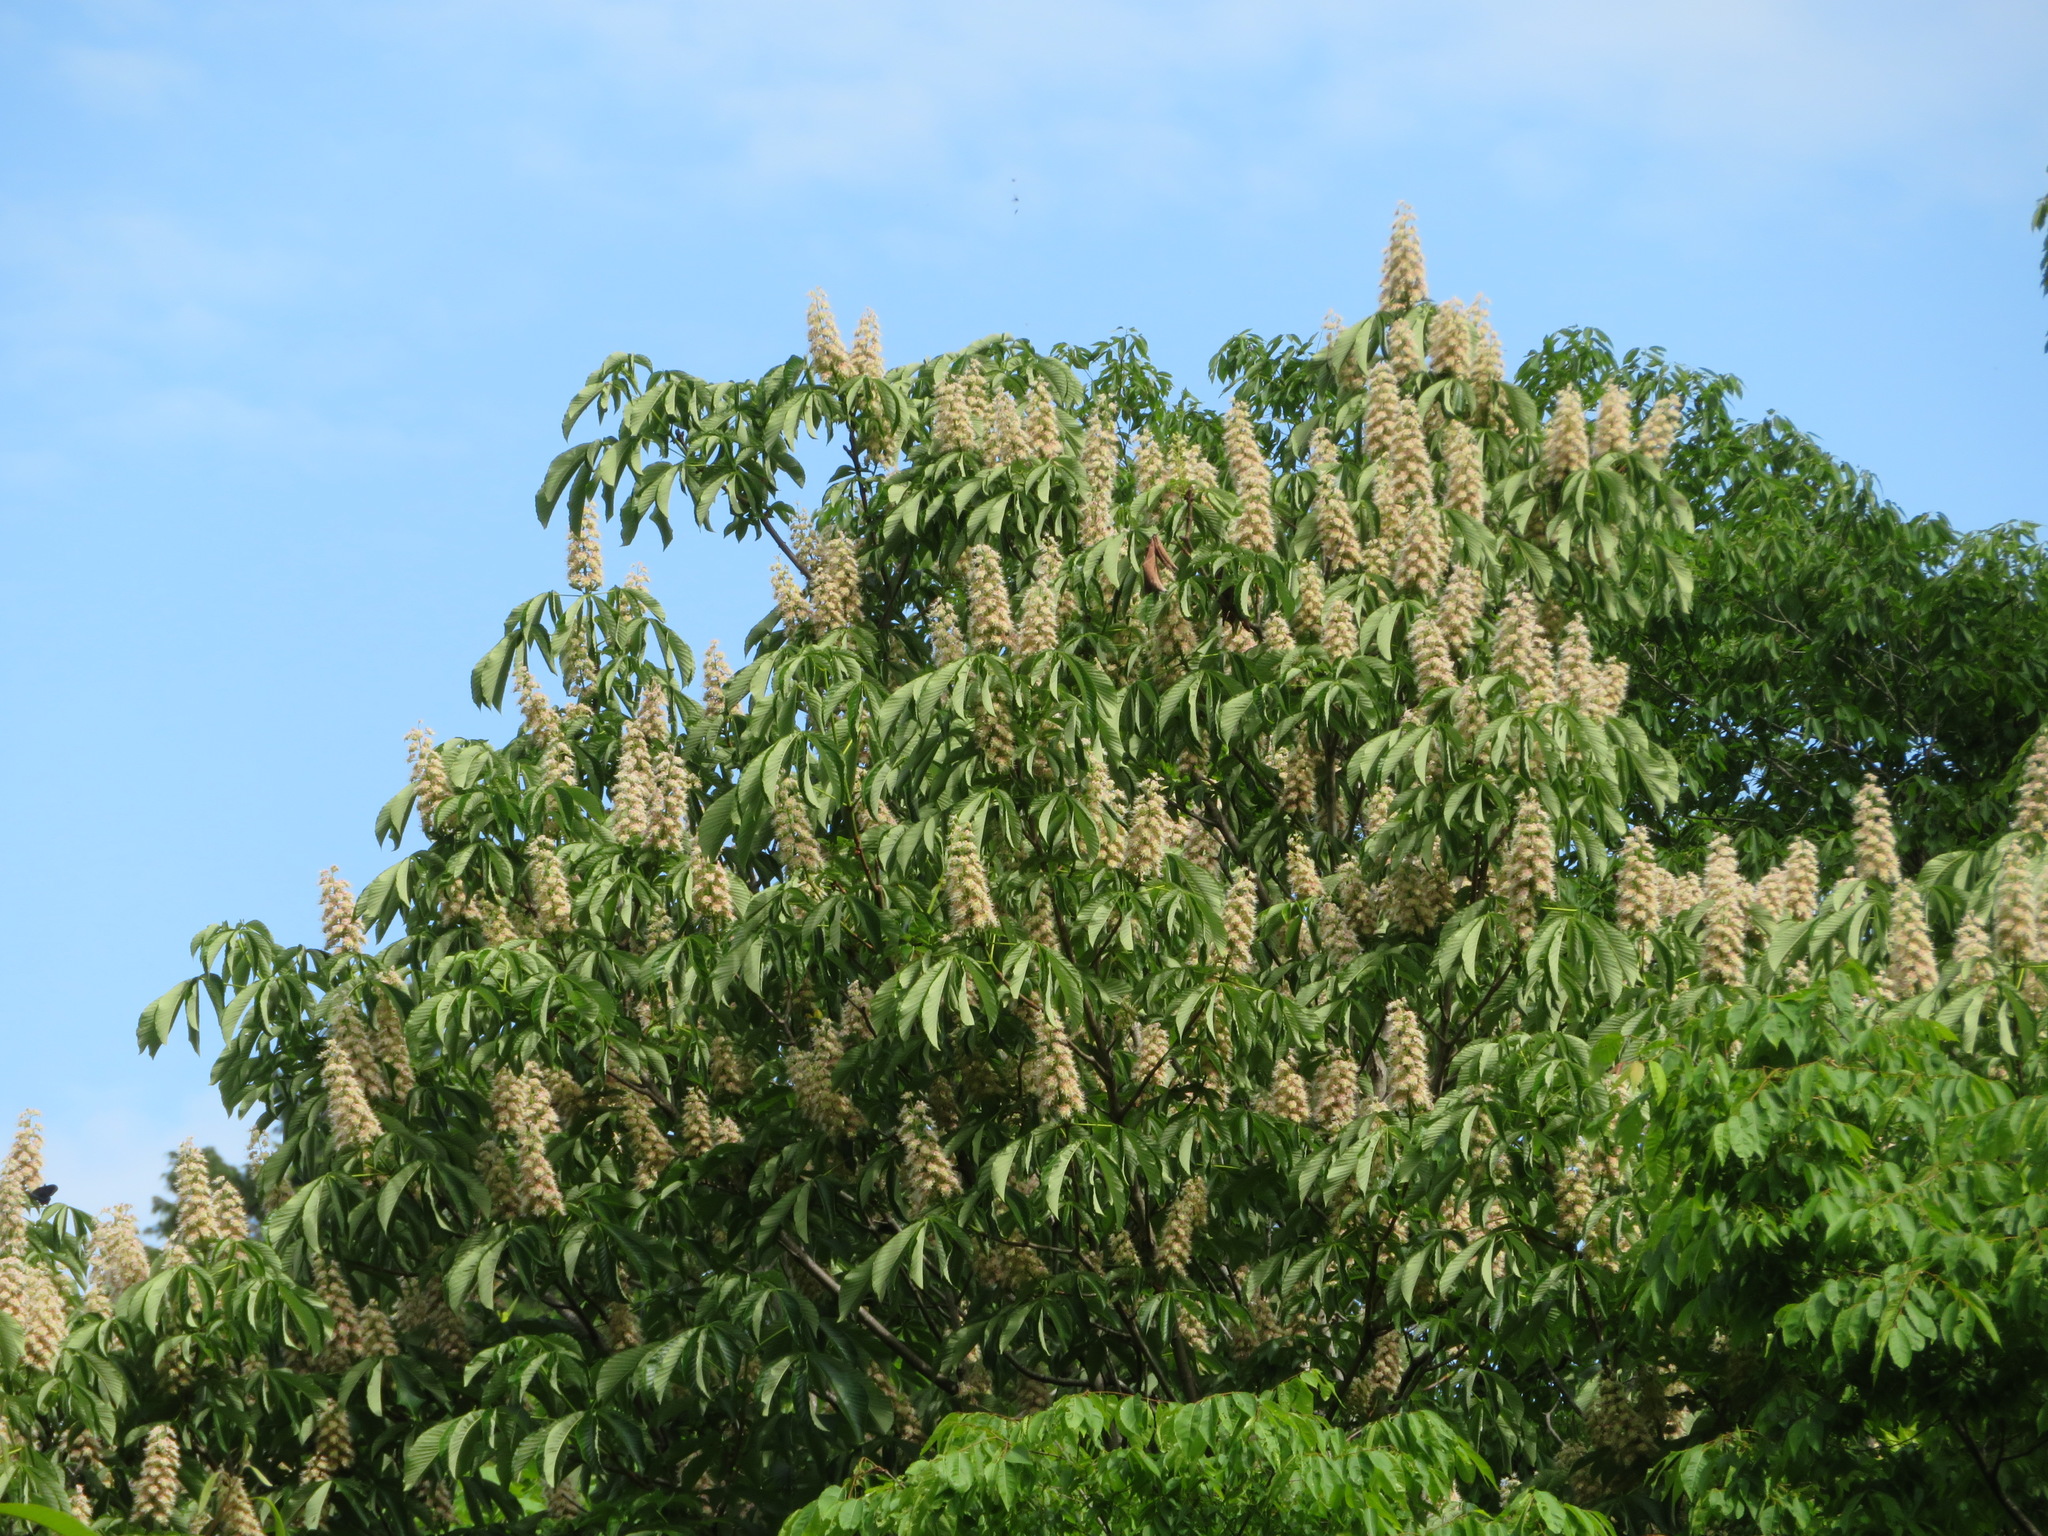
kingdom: Plantae
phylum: Tracheophyta
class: Magnoliopsida
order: Sapindales
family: Sapindaceae
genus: Aesculus
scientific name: Aesculus turbinata
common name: Japanese horse-chestnut
